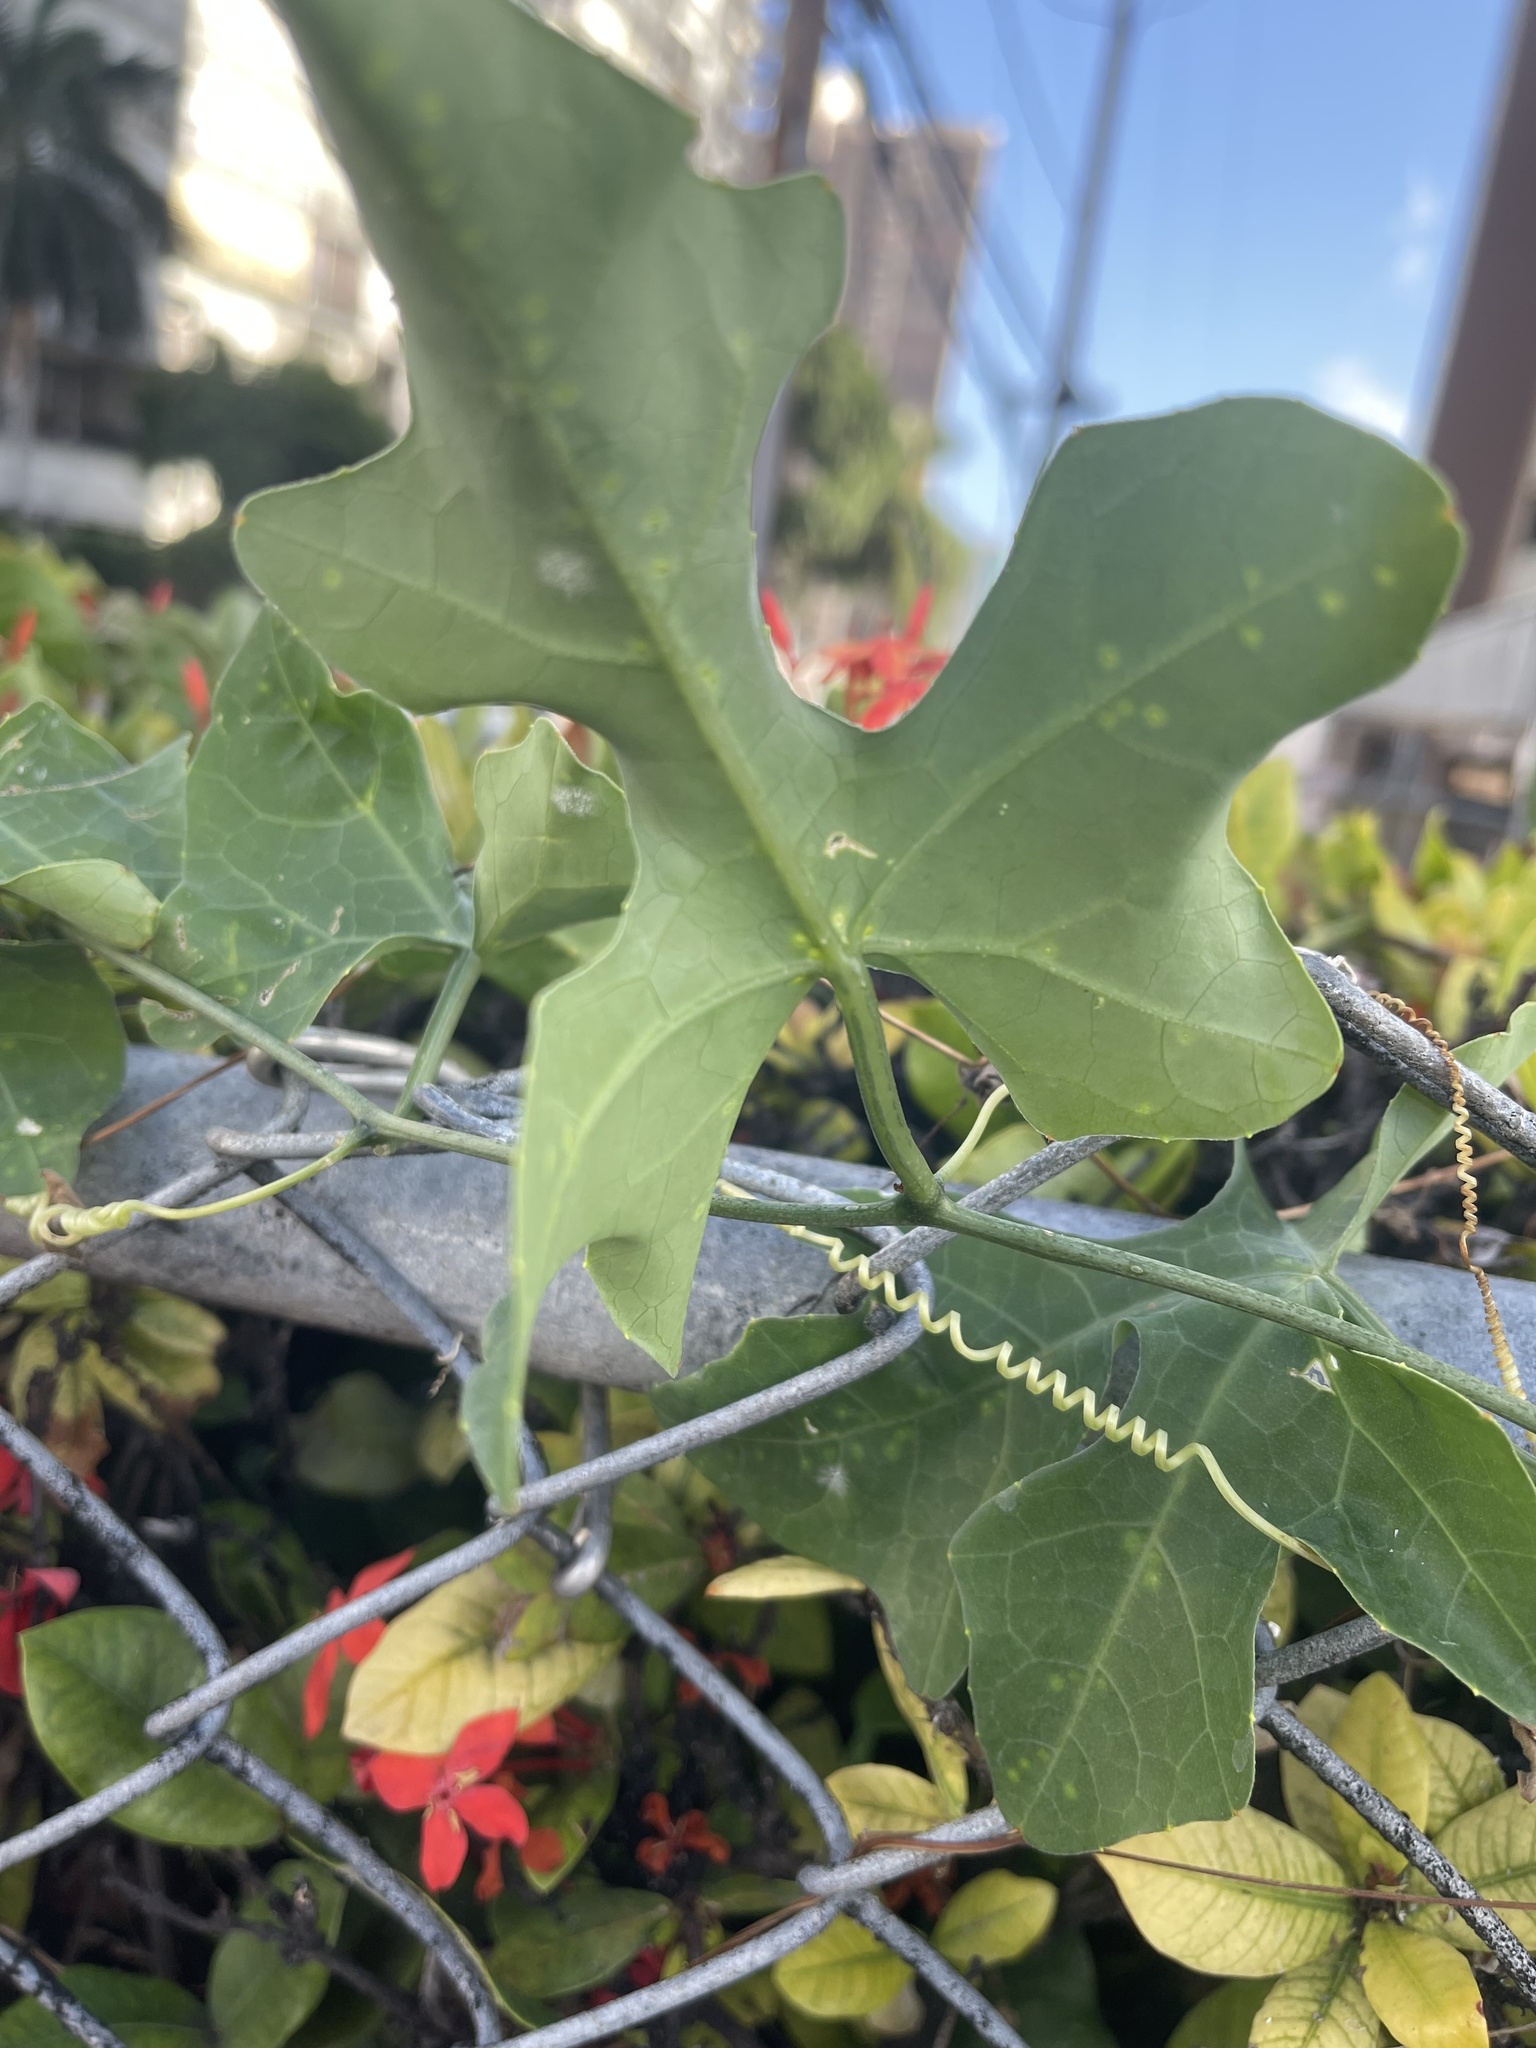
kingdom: Plantae
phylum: Tracheophyta
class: Magnoliopsida
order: Cucurbitales
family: Cucurbitaceae
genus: Coccinia
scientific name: Coccinia grandis
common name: Ivy gourd
